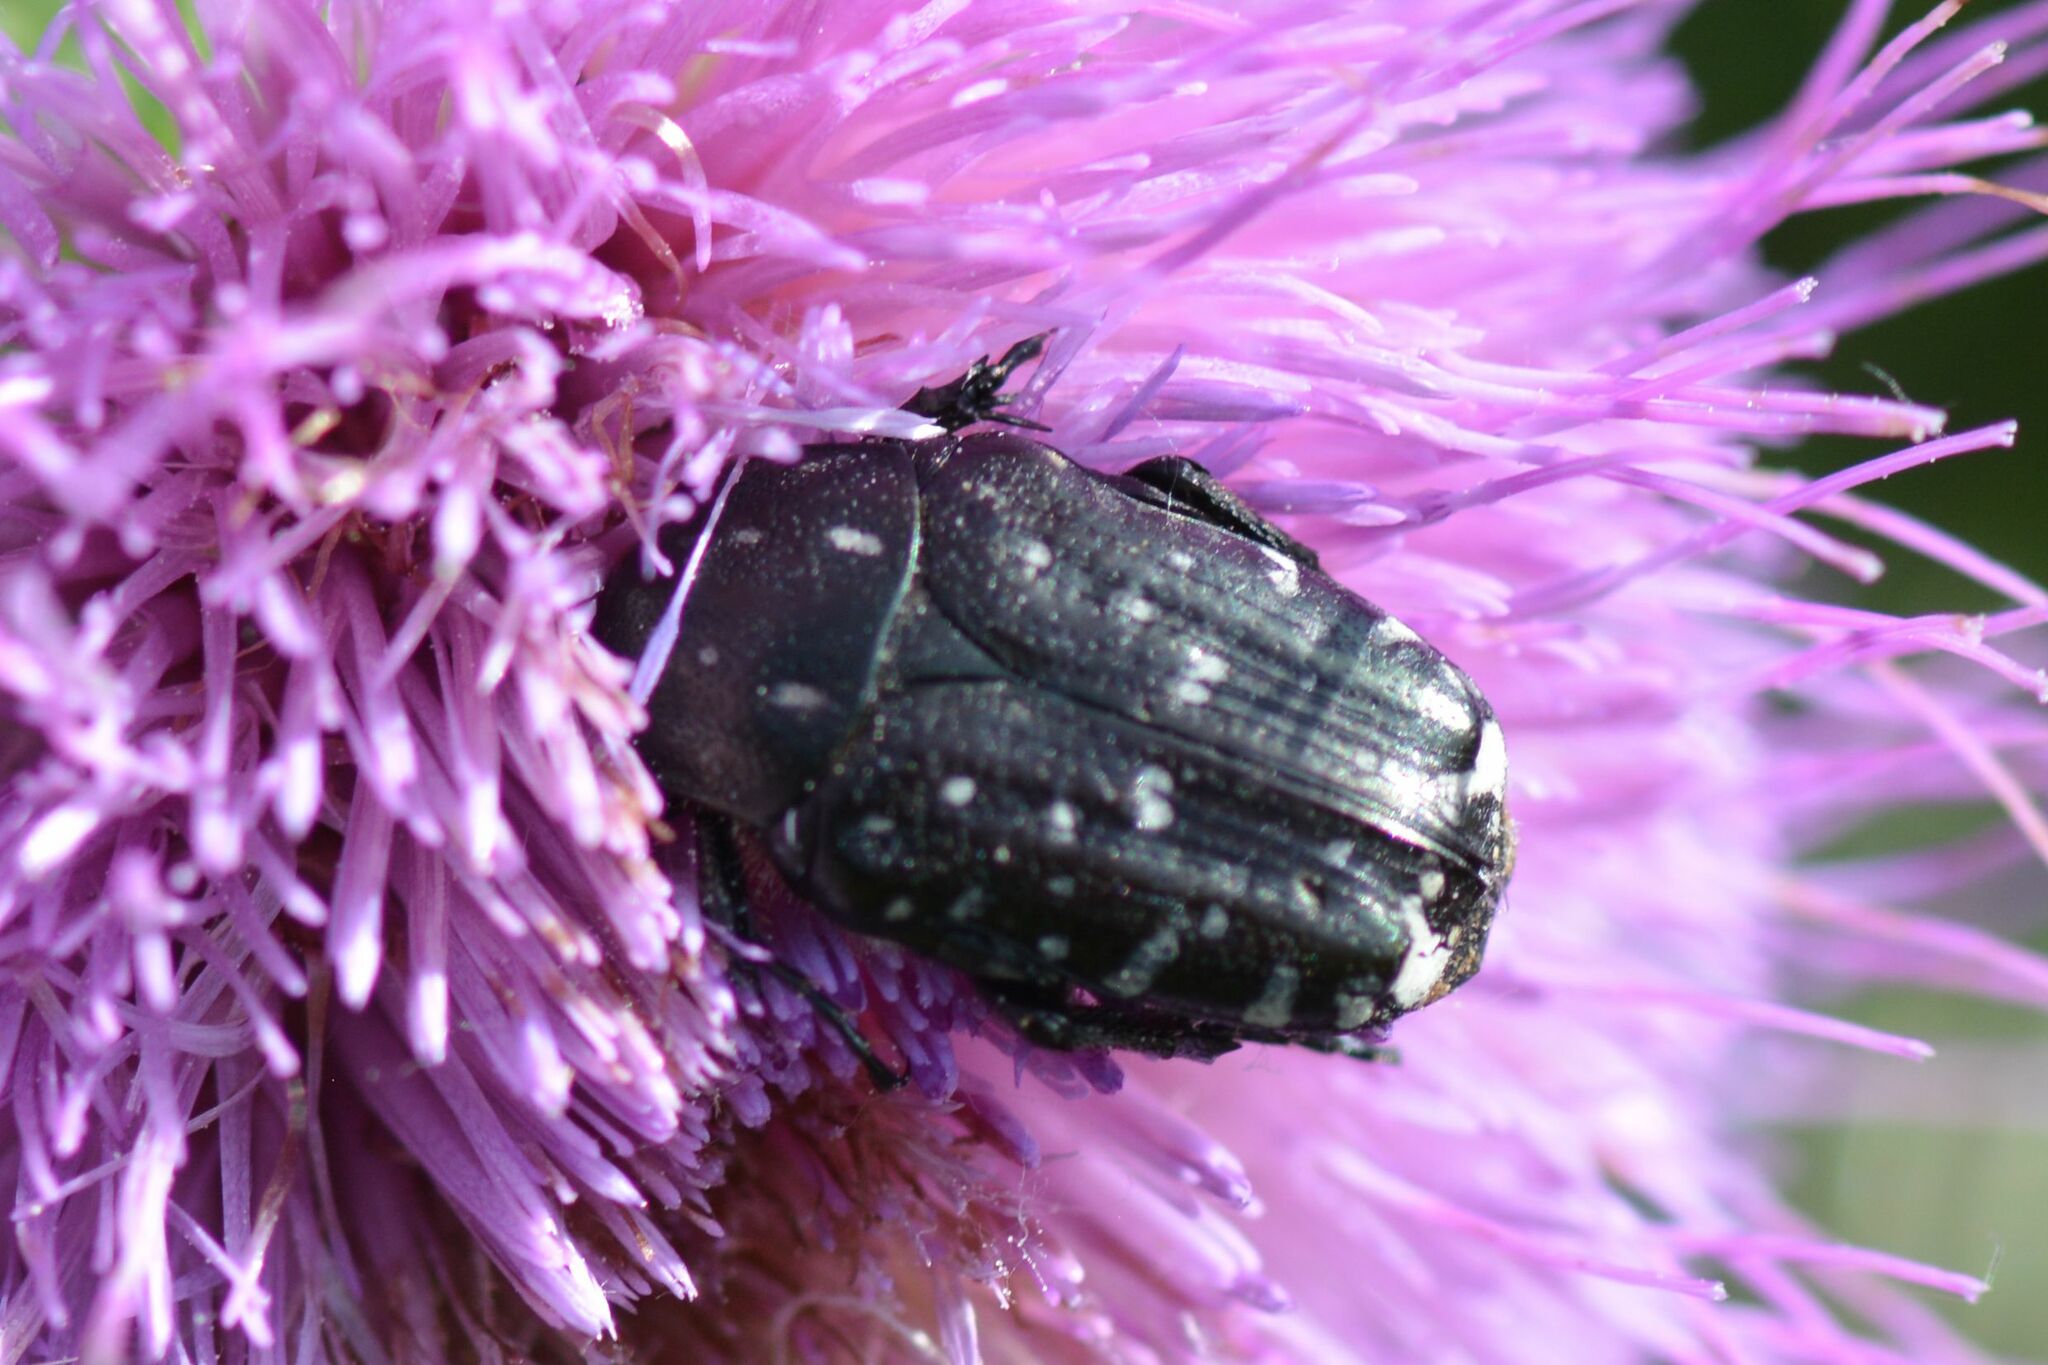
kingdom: Animalia
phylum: Arthropoda
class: Insecta
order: Coleoptera
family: Scarabaeidae
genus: Oxythyrea
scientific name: Oxythyrea funesta
